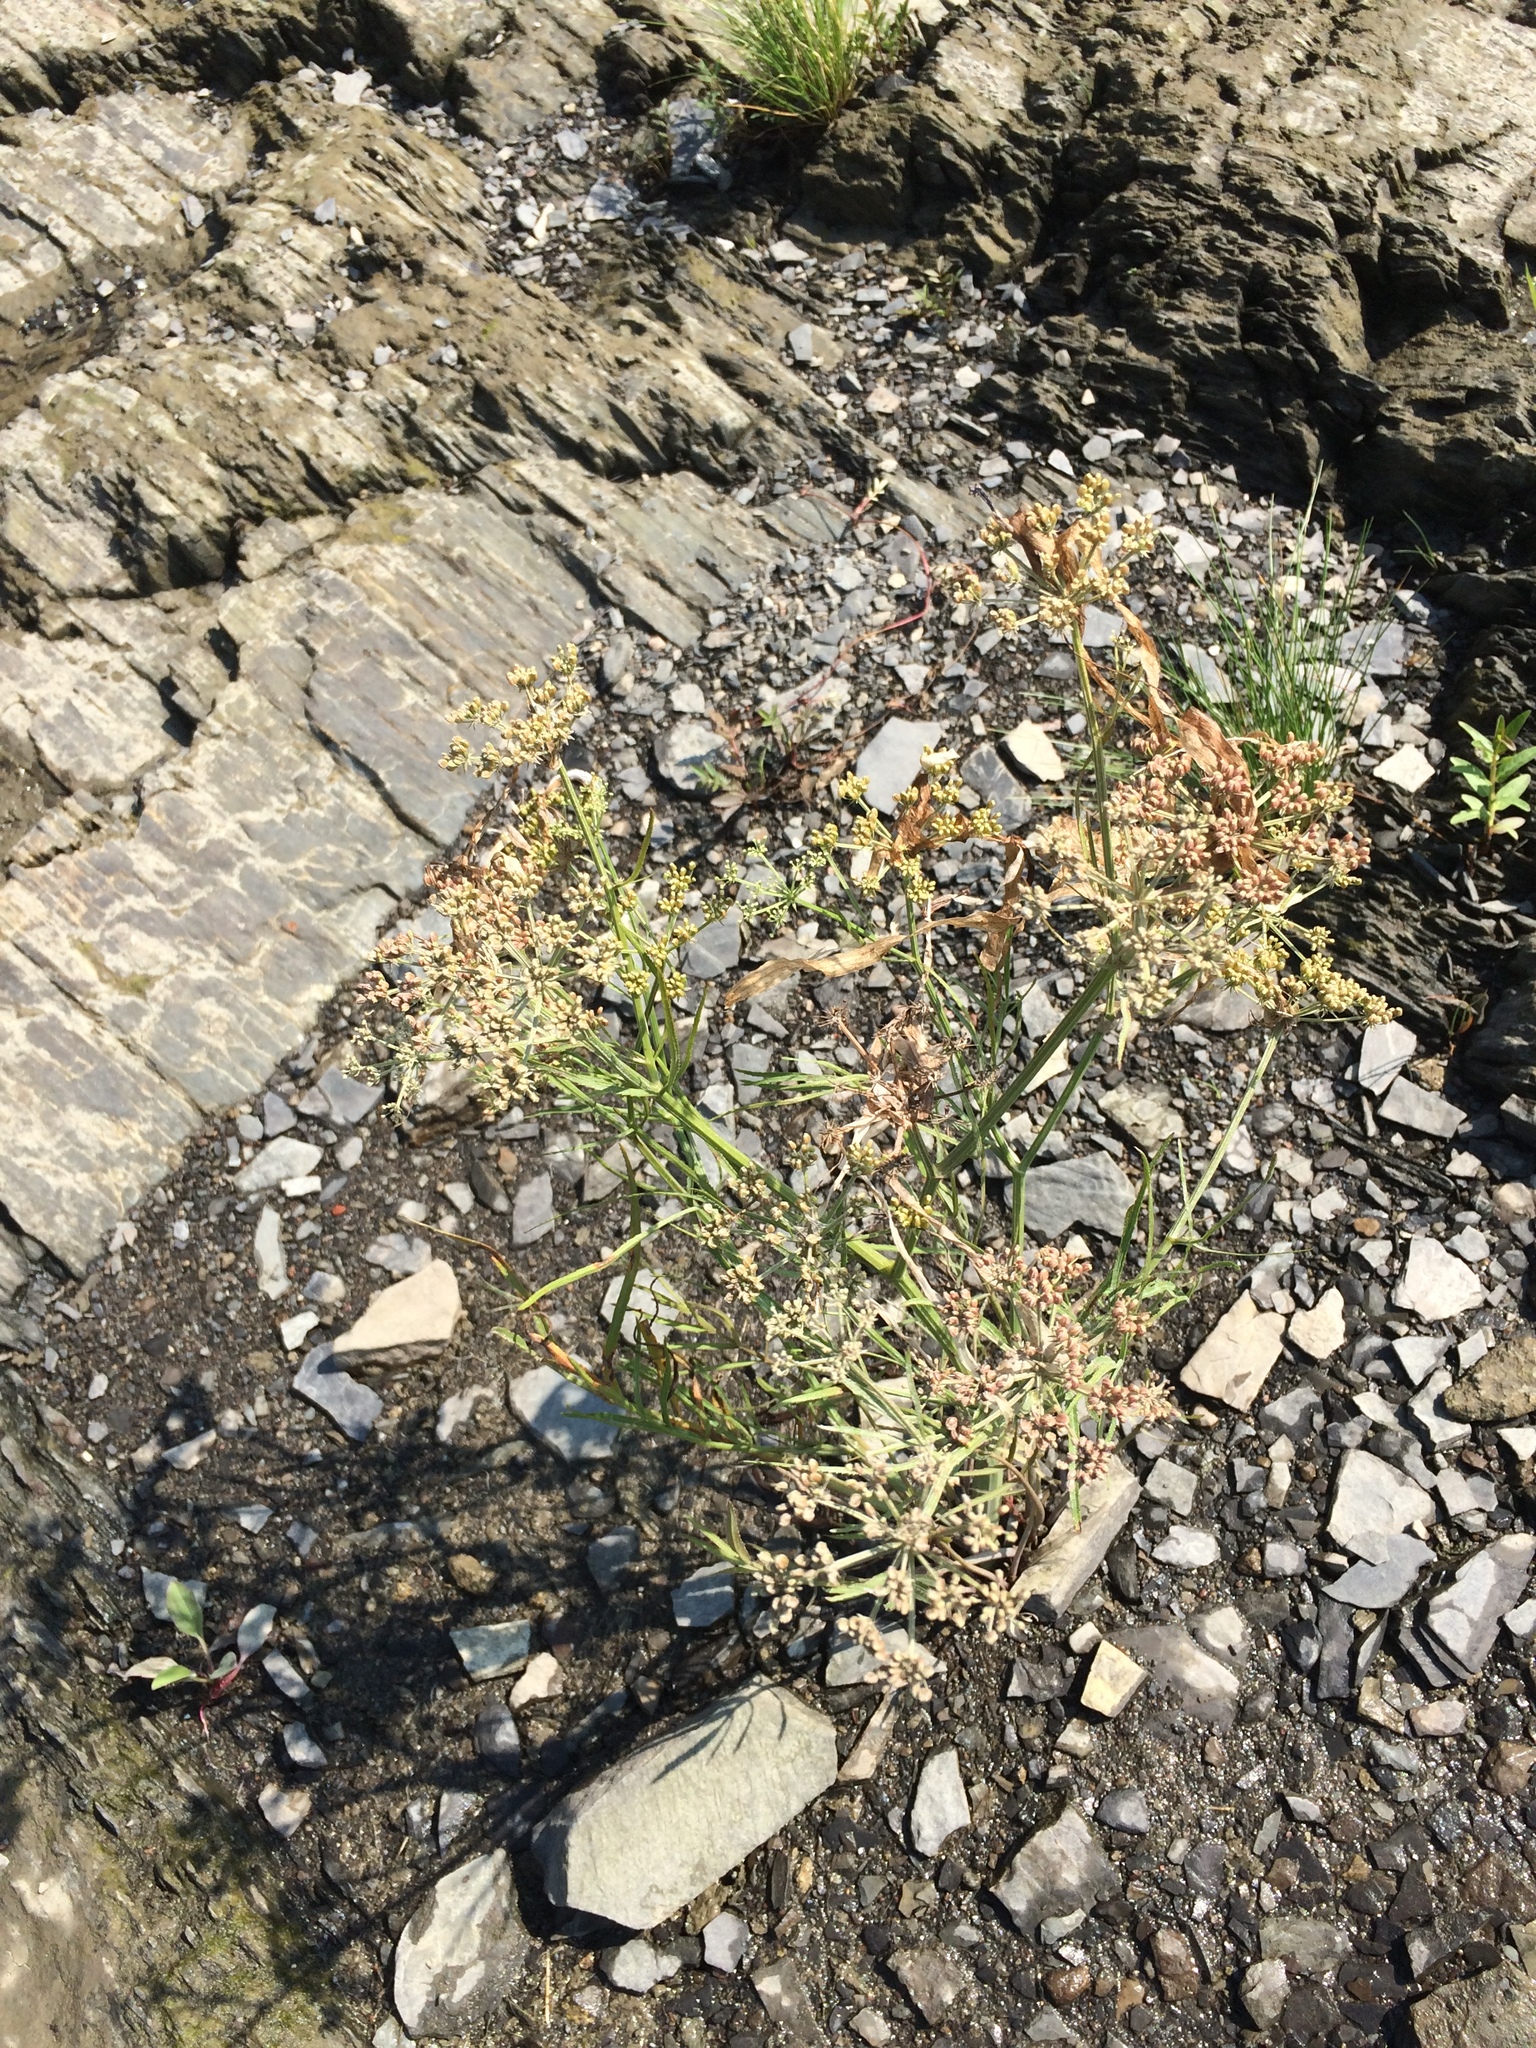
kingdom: Plantae
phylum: Tracheophyta
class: Magnoliopsida
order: Apiales
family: Apiaceae
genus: Sium
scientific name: Sium suave
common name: Hemlock water-parsnip
